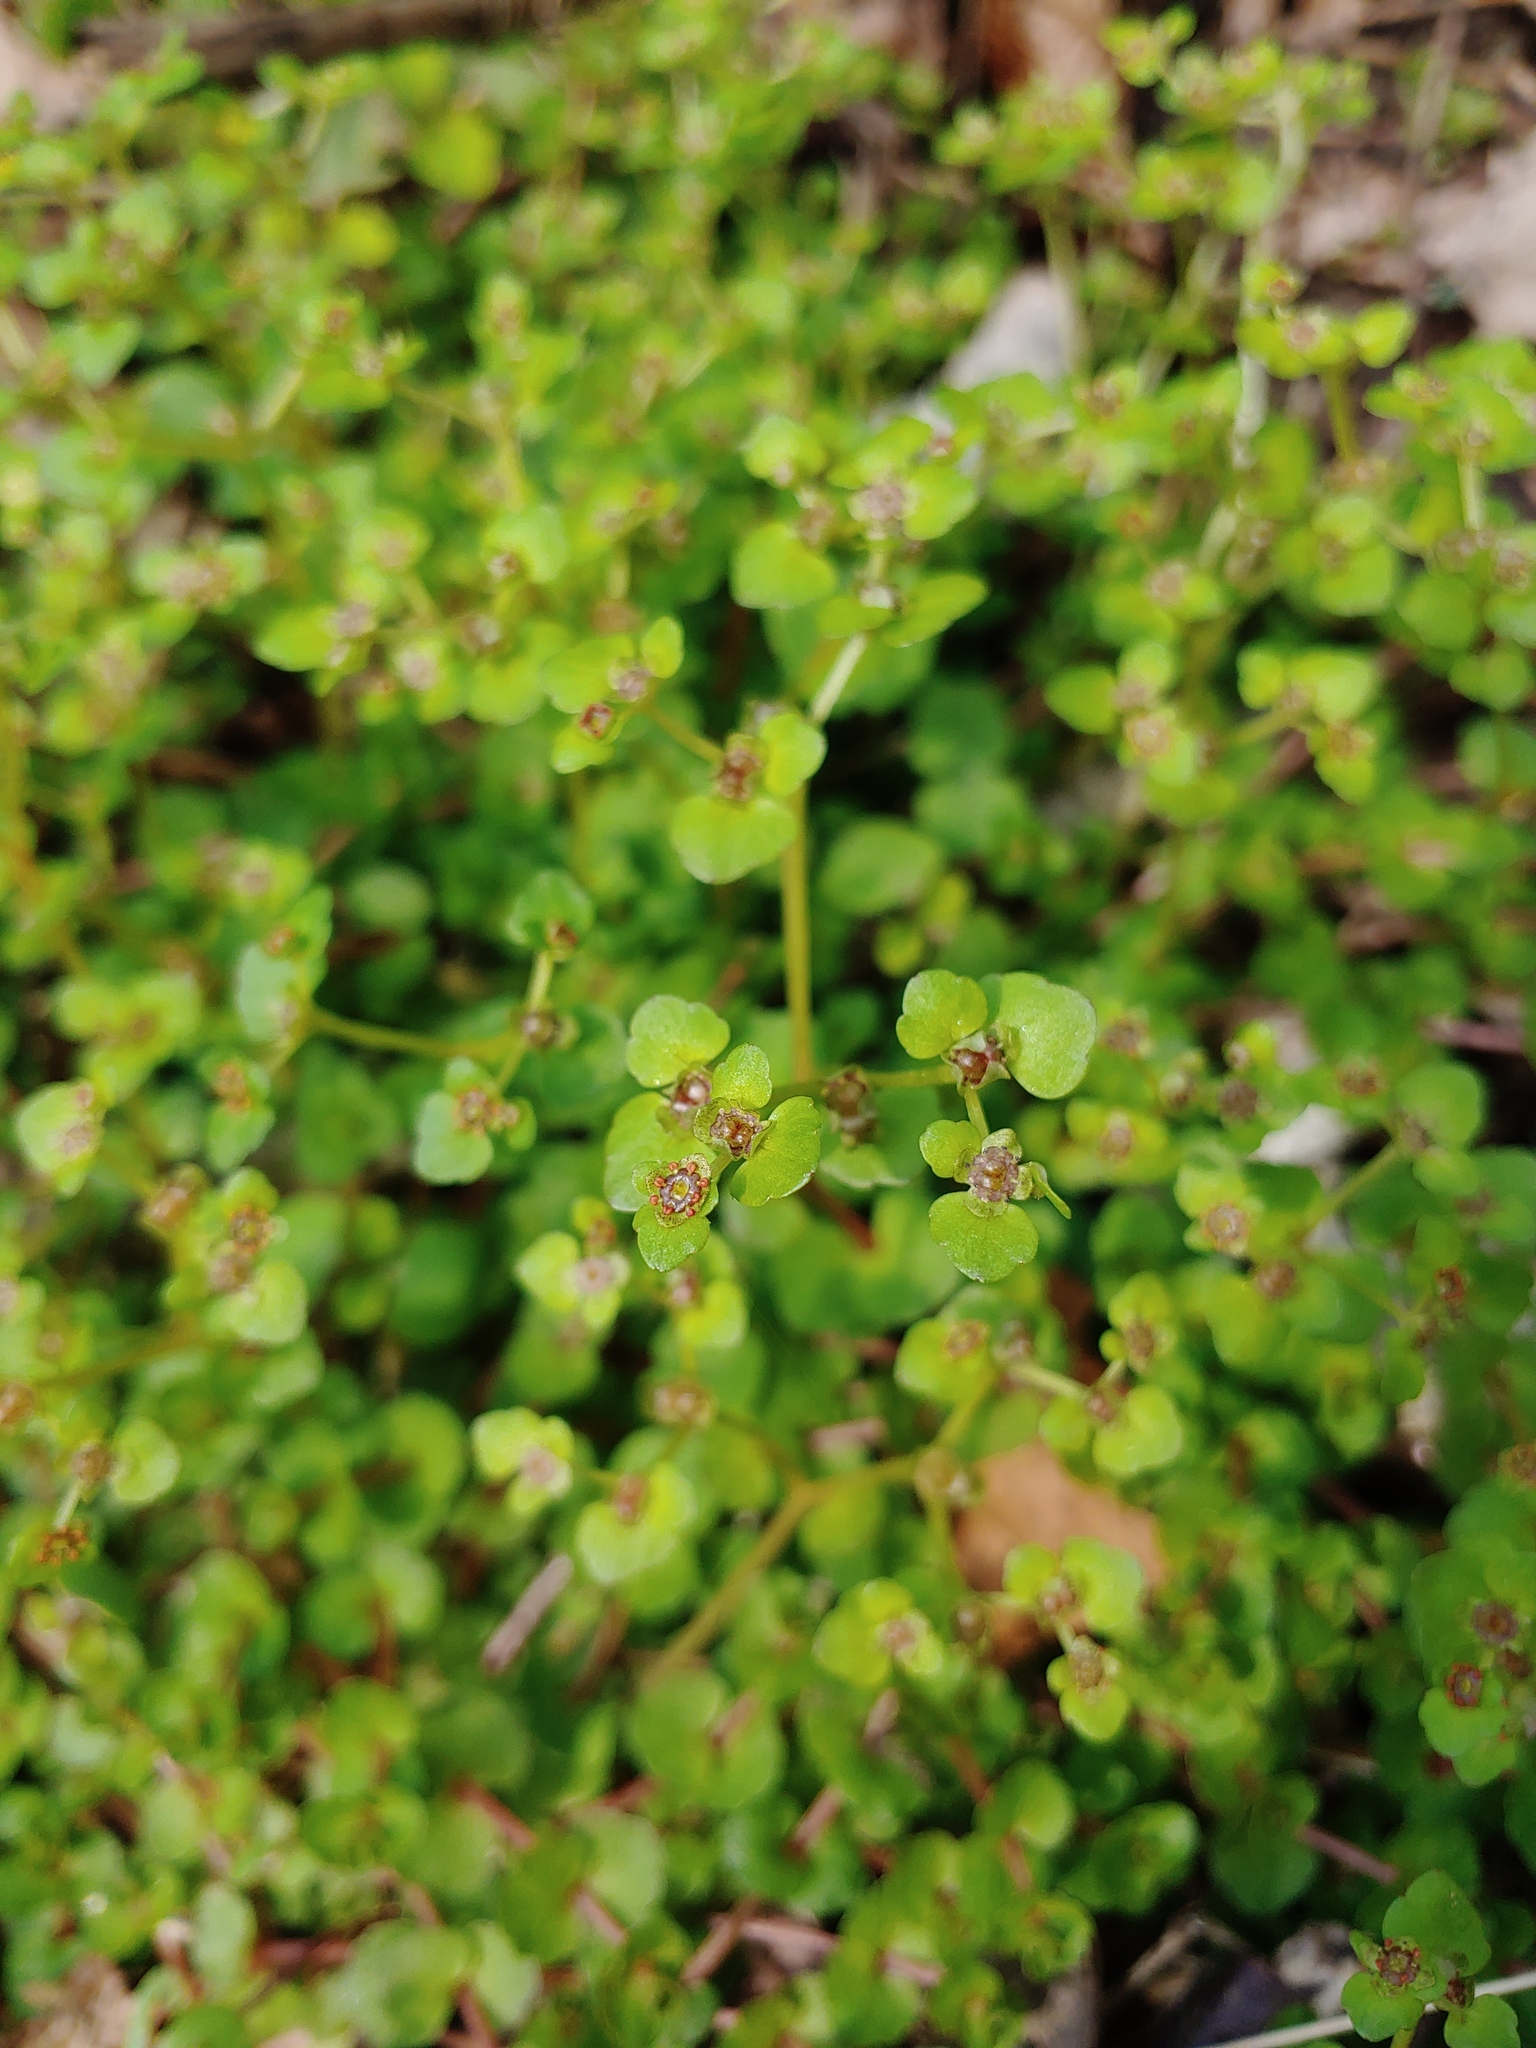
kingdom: Plantae
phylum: Tracheophyta
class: Magnoliopsida
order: Saxifragales
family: Saxifragaceae
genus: Chrysosplenium
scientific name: Chrysosplenium americanum
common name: American golden-saxifrage
